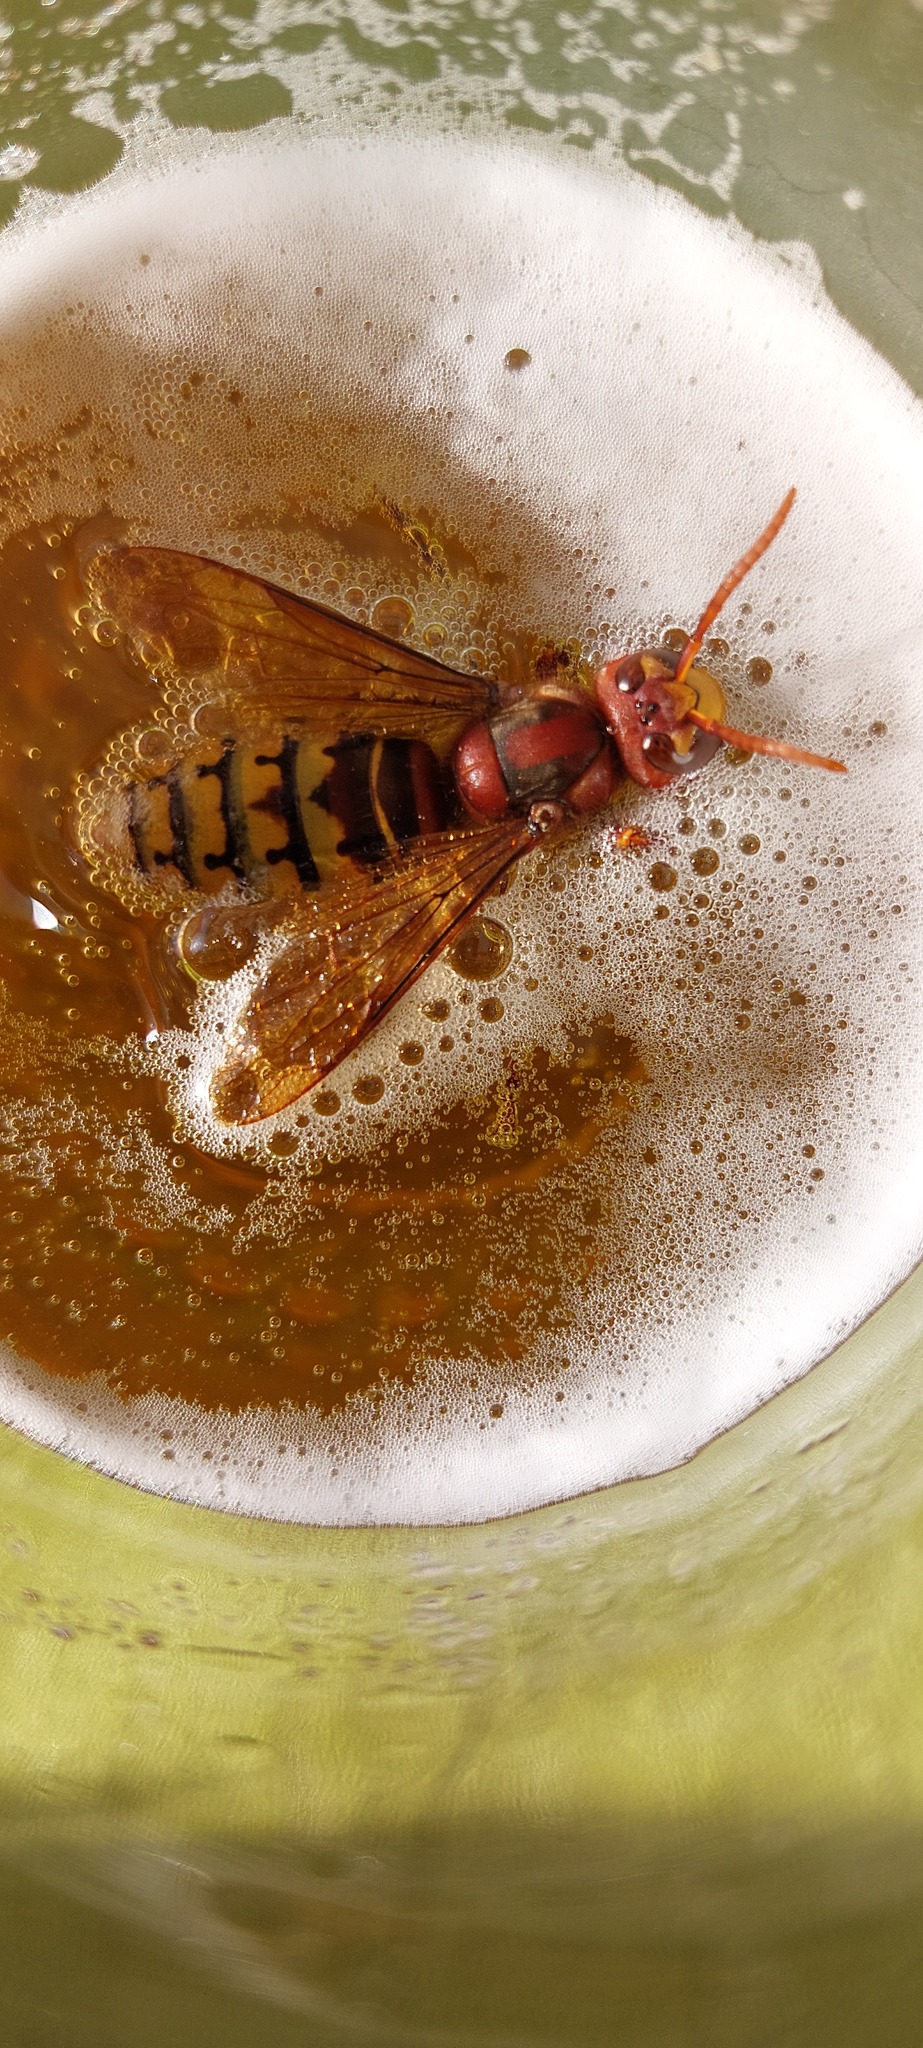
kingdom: Animalia
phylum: Arthropoda
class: Insecta
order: Hymenoptera
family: Vespidae
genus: Vespa
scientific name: Vespa crabro
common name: Hornet
